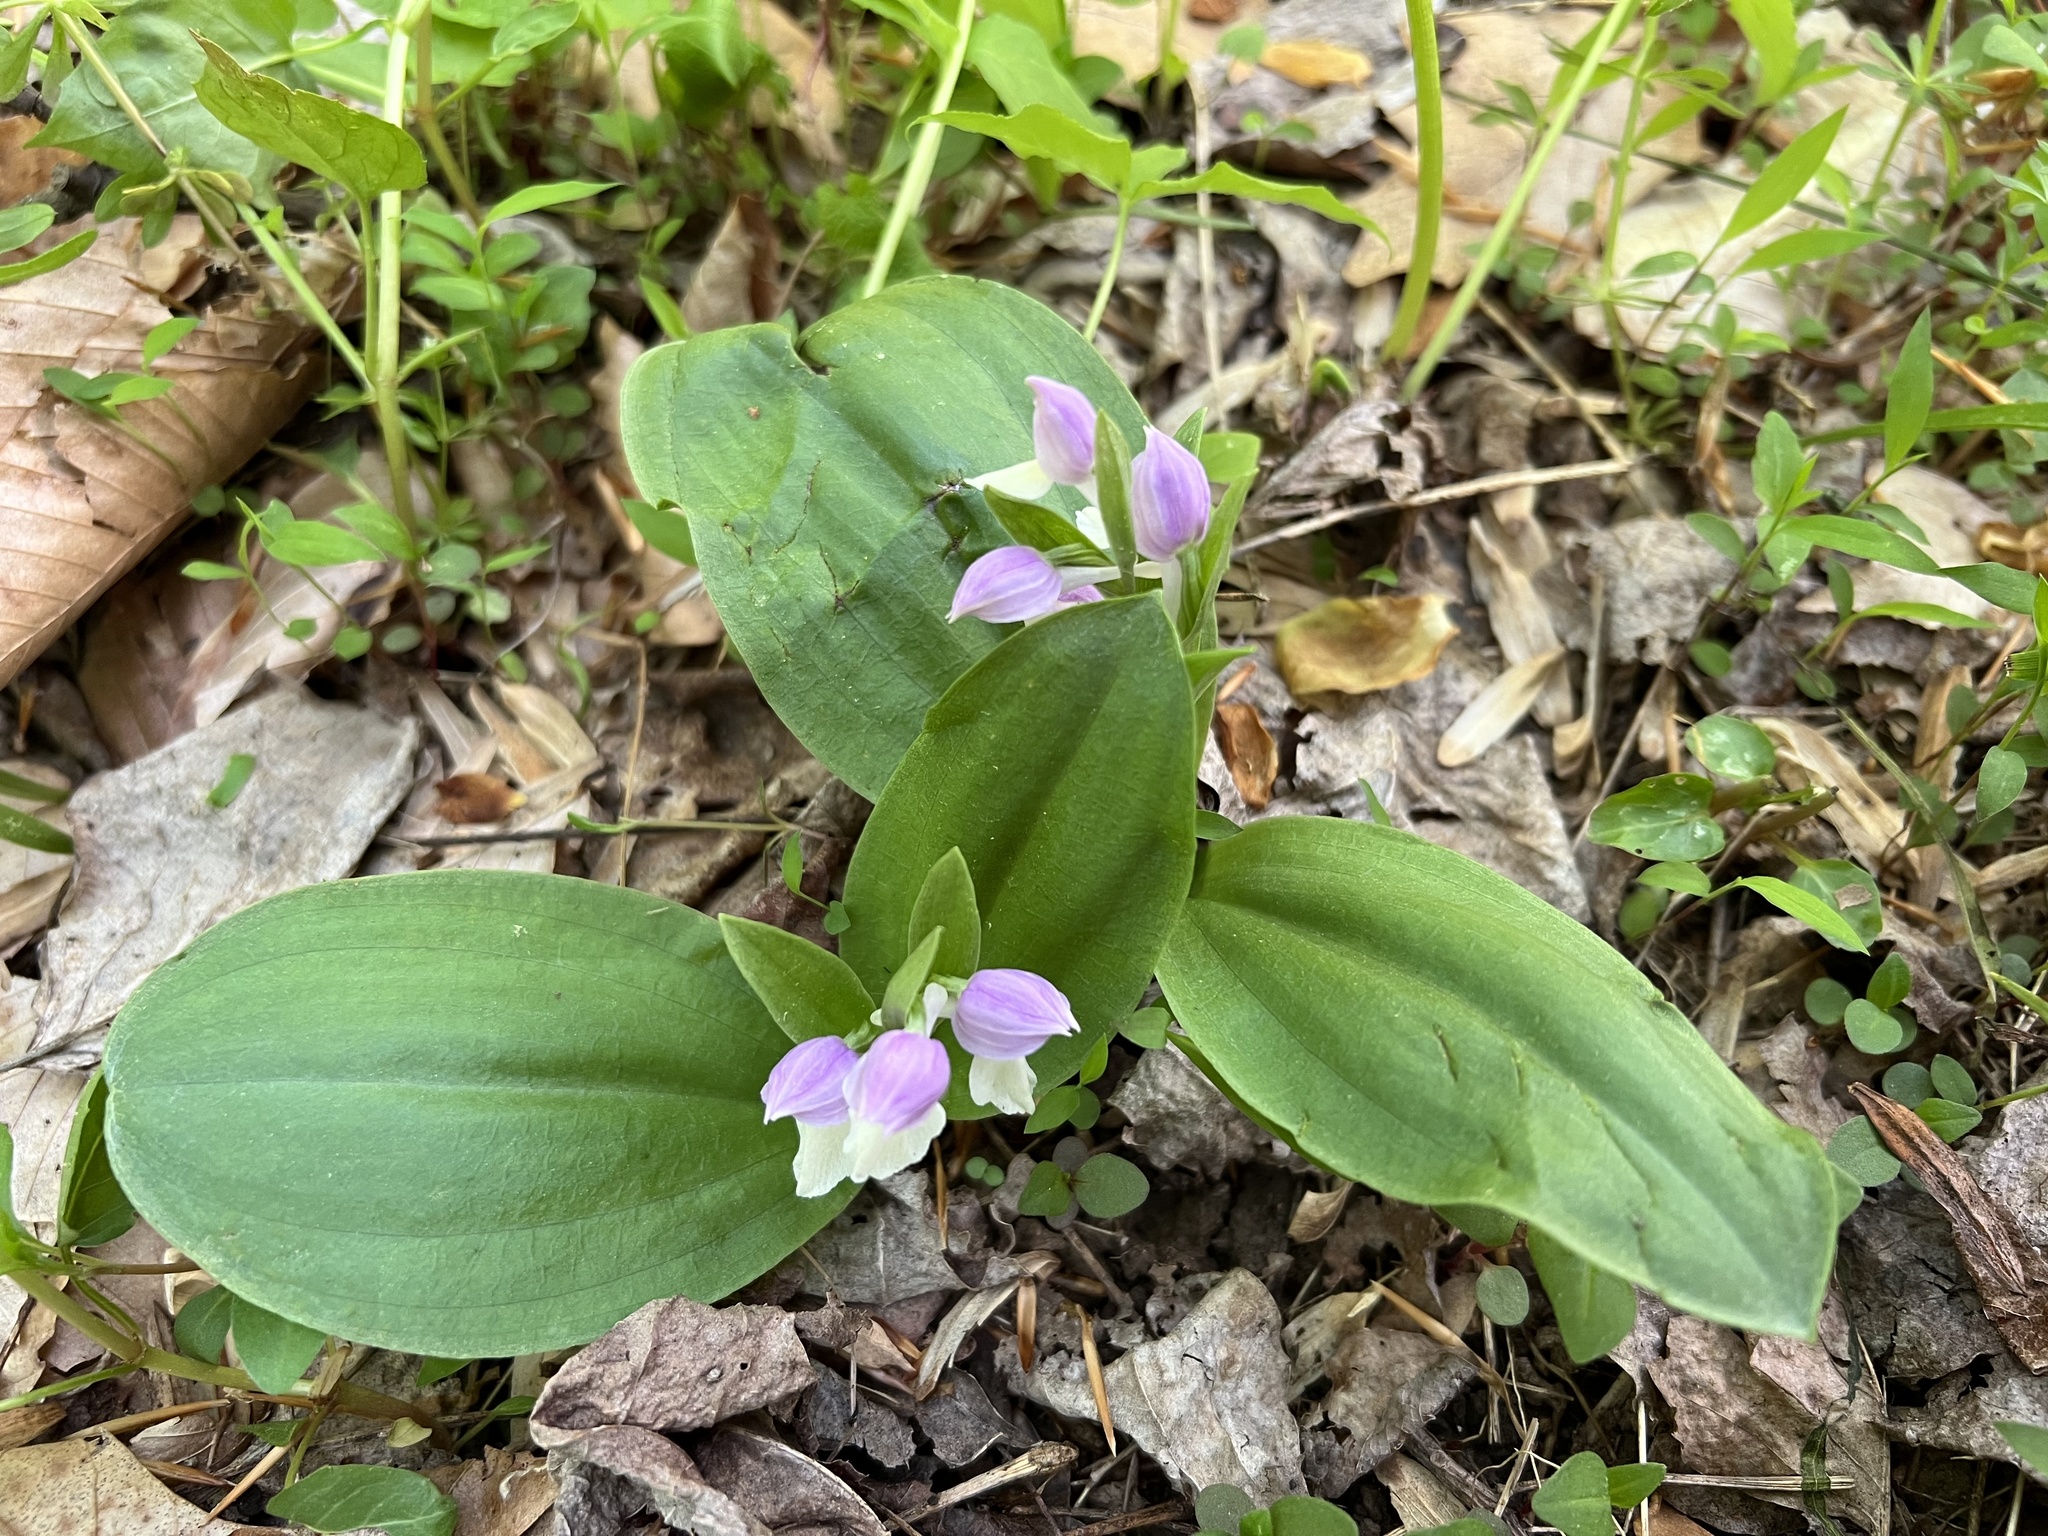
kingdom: Plantae
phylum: Tracheophyta
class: Liliopsida
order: Asparagales
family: Orchidaceae
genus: Galearis
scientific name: Galearis spectabilis
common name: Purple-hooded orchis
